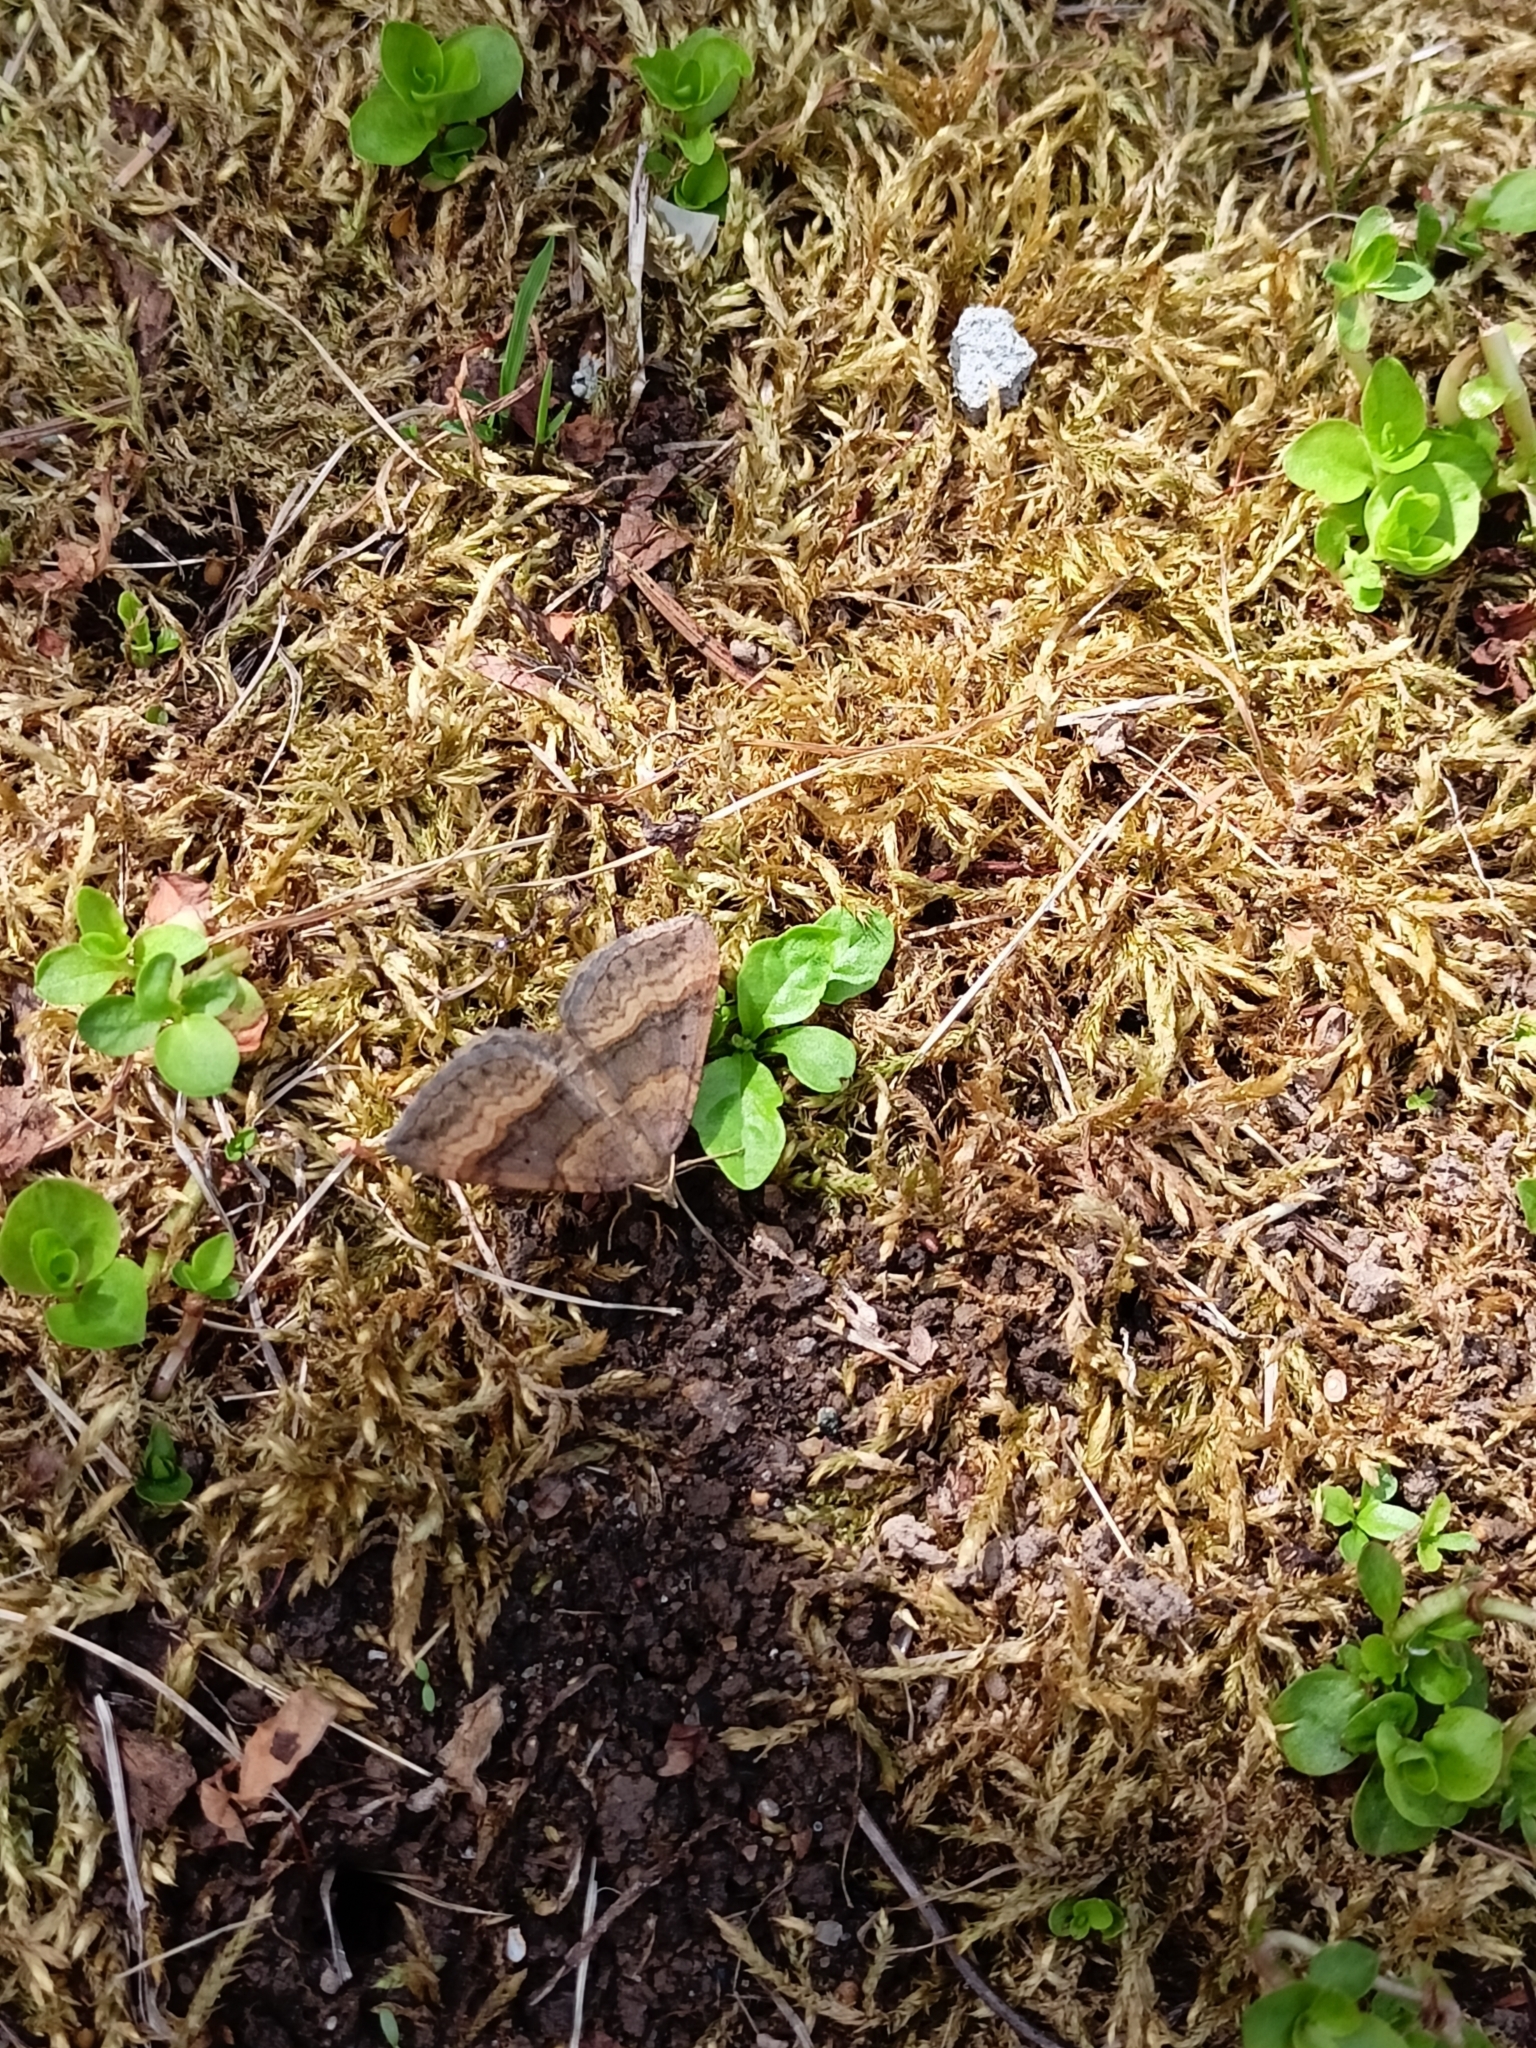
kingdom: Animalia
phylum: Arthropoda
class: Insecta
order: Lepidoptera
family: Geometridae
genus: Scotopteryx
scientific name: Scotopteryx chenopodiata
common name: Shaded broad-bar
